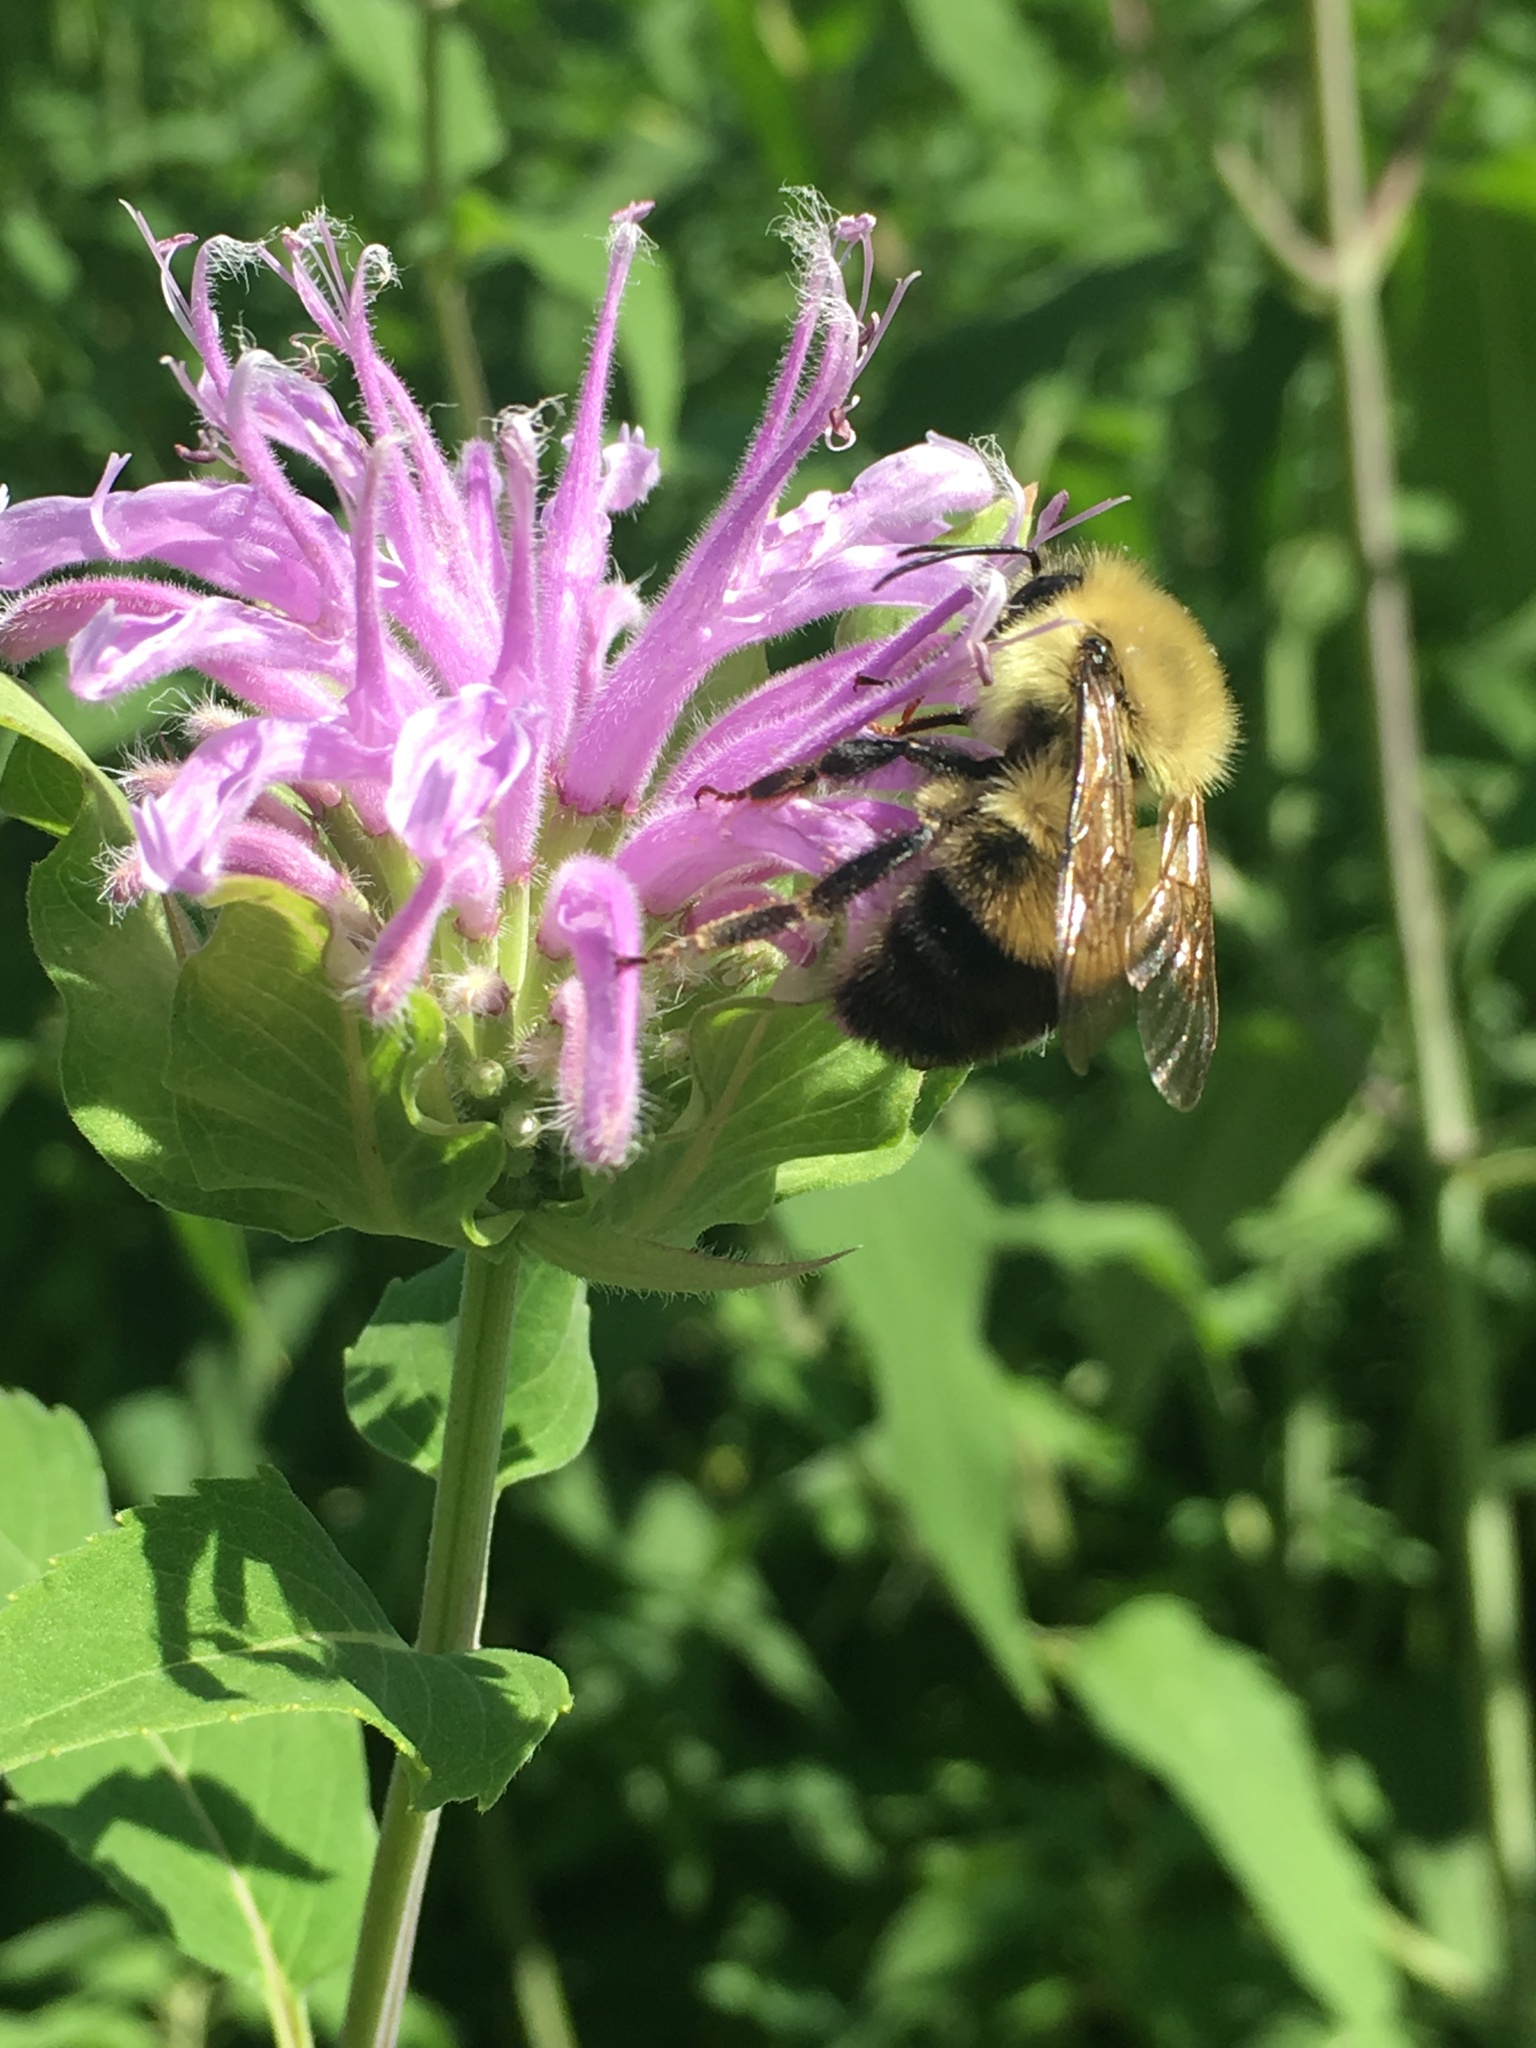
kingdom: Plantae
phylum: Tracheophyta
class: Magnoliopsida
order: Lamiales
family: Lamiaceae
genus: Monarda
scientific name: Monarda fistulosa
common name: Purple beebalm
